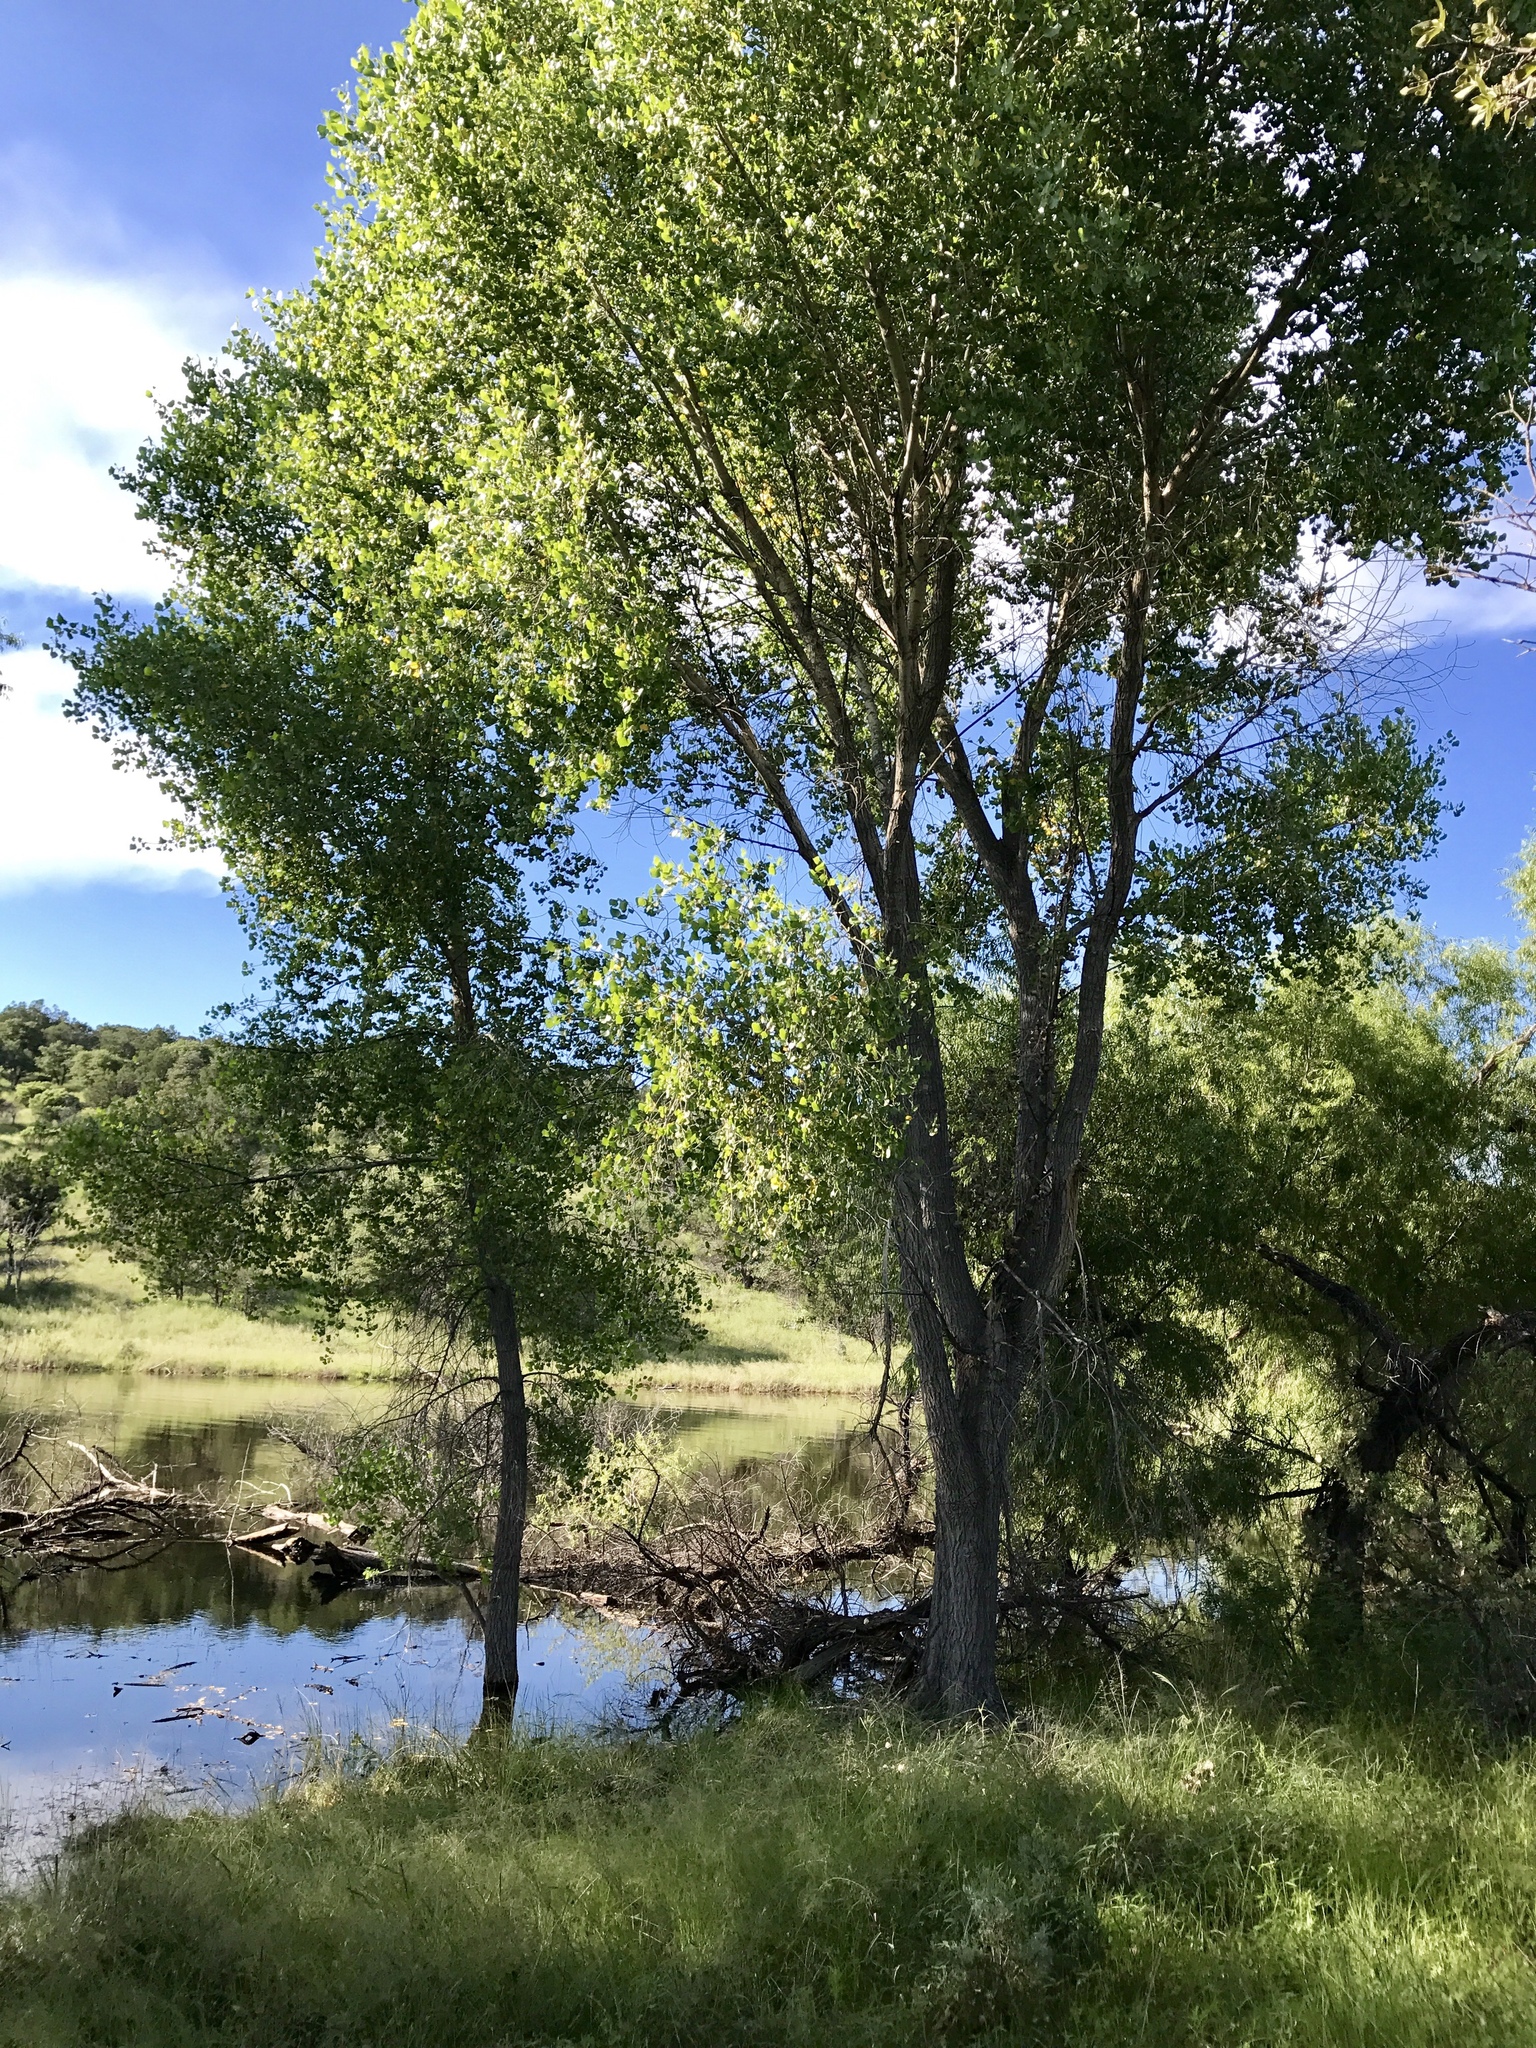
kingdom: Plantae
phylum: Tracheophyta
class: Magnoliopsida
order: Malpighiales
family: Salicaceae
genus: Populus
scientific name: Populus fremontii
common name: Fremont's cottonwood
